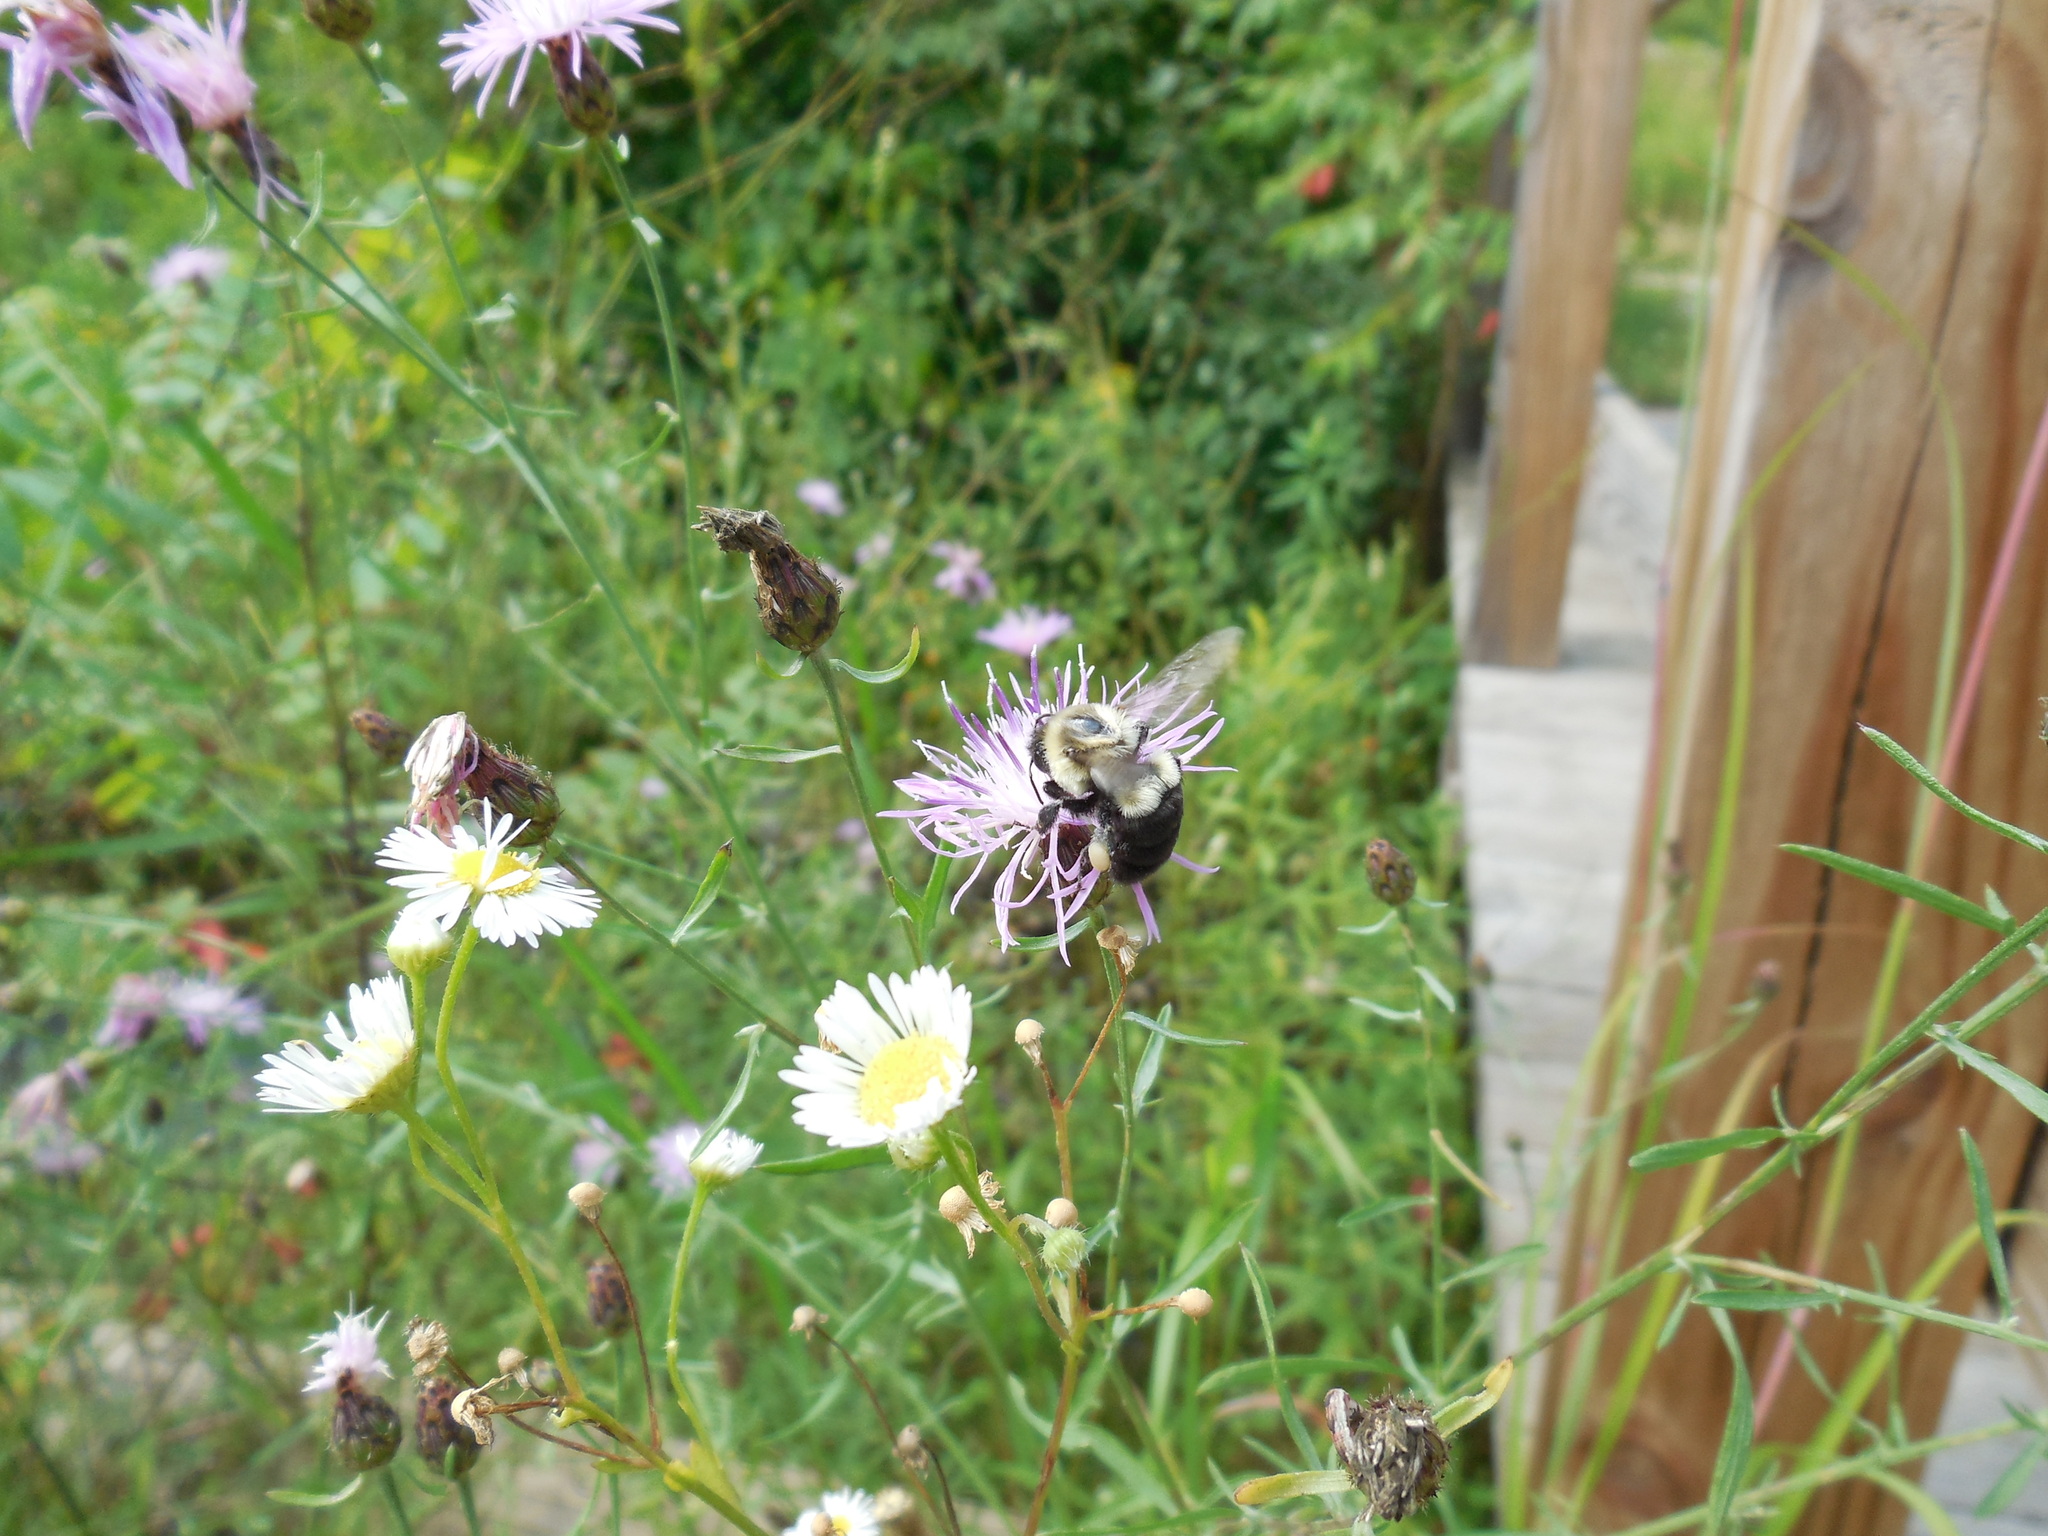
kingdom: Animalia
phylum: Arthropoda
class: Insecta
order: Hymenoptera
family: Apidae
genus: Bombus
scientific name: Bombus impatiens
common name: Common eastern bumble bee
